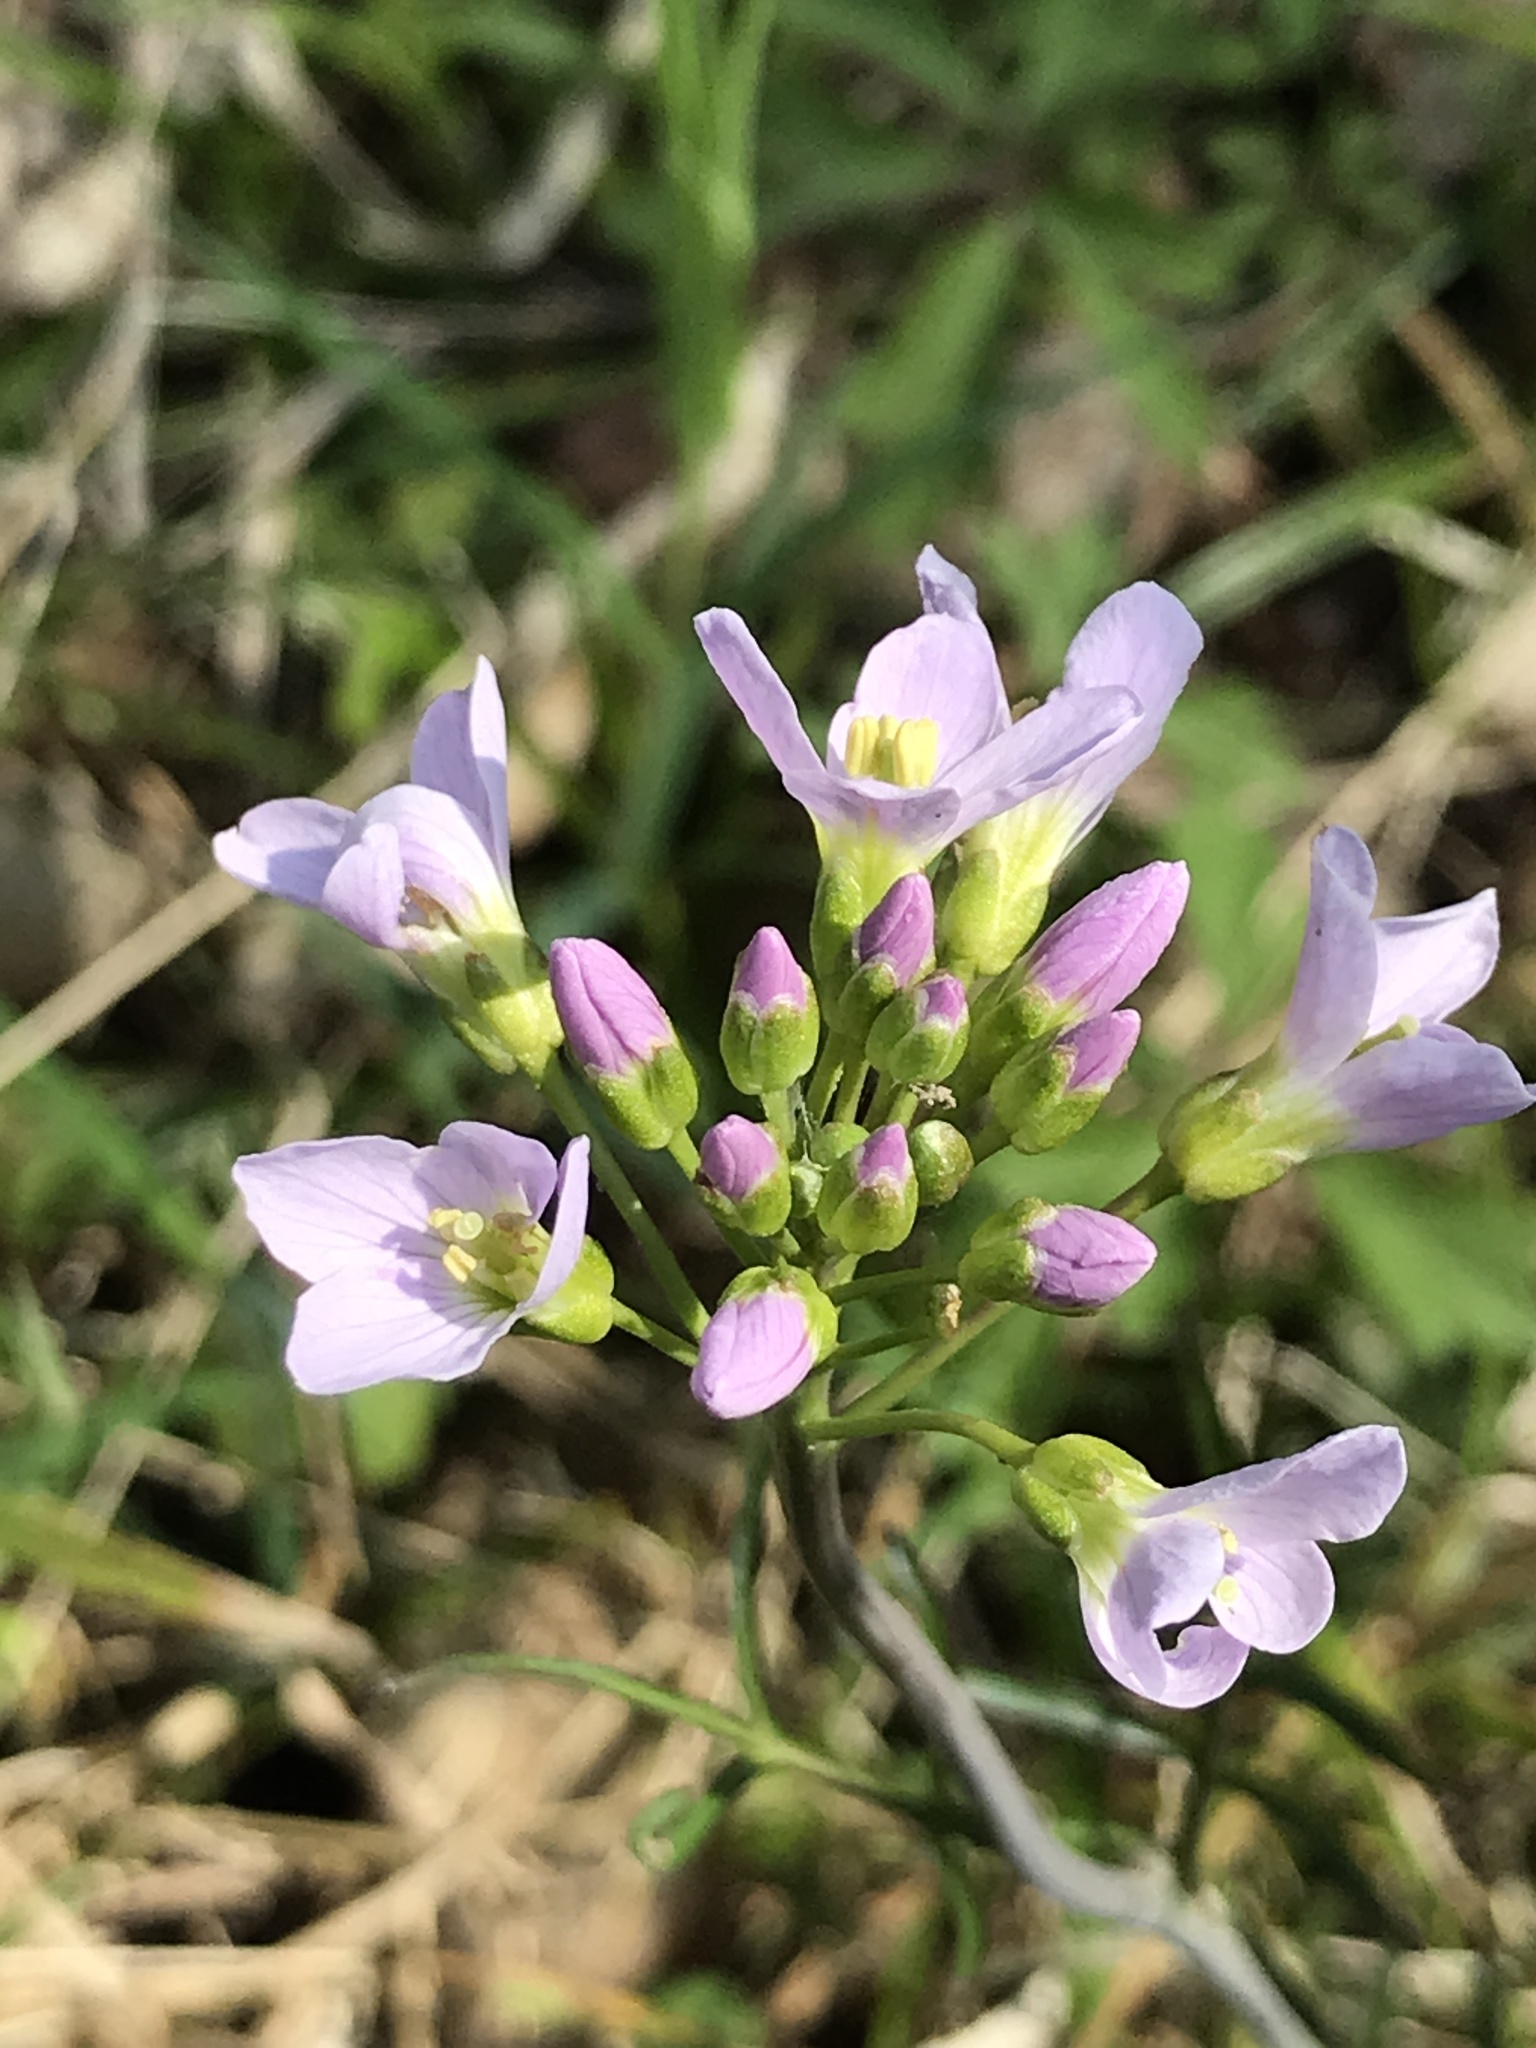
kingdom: Plantae
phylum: Tracheophyta
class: Magnoliopsida
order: Brassicales
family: Brassicaceae
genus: Cardamine
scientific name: Cardamine pratensis
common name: Cuckoo flower
